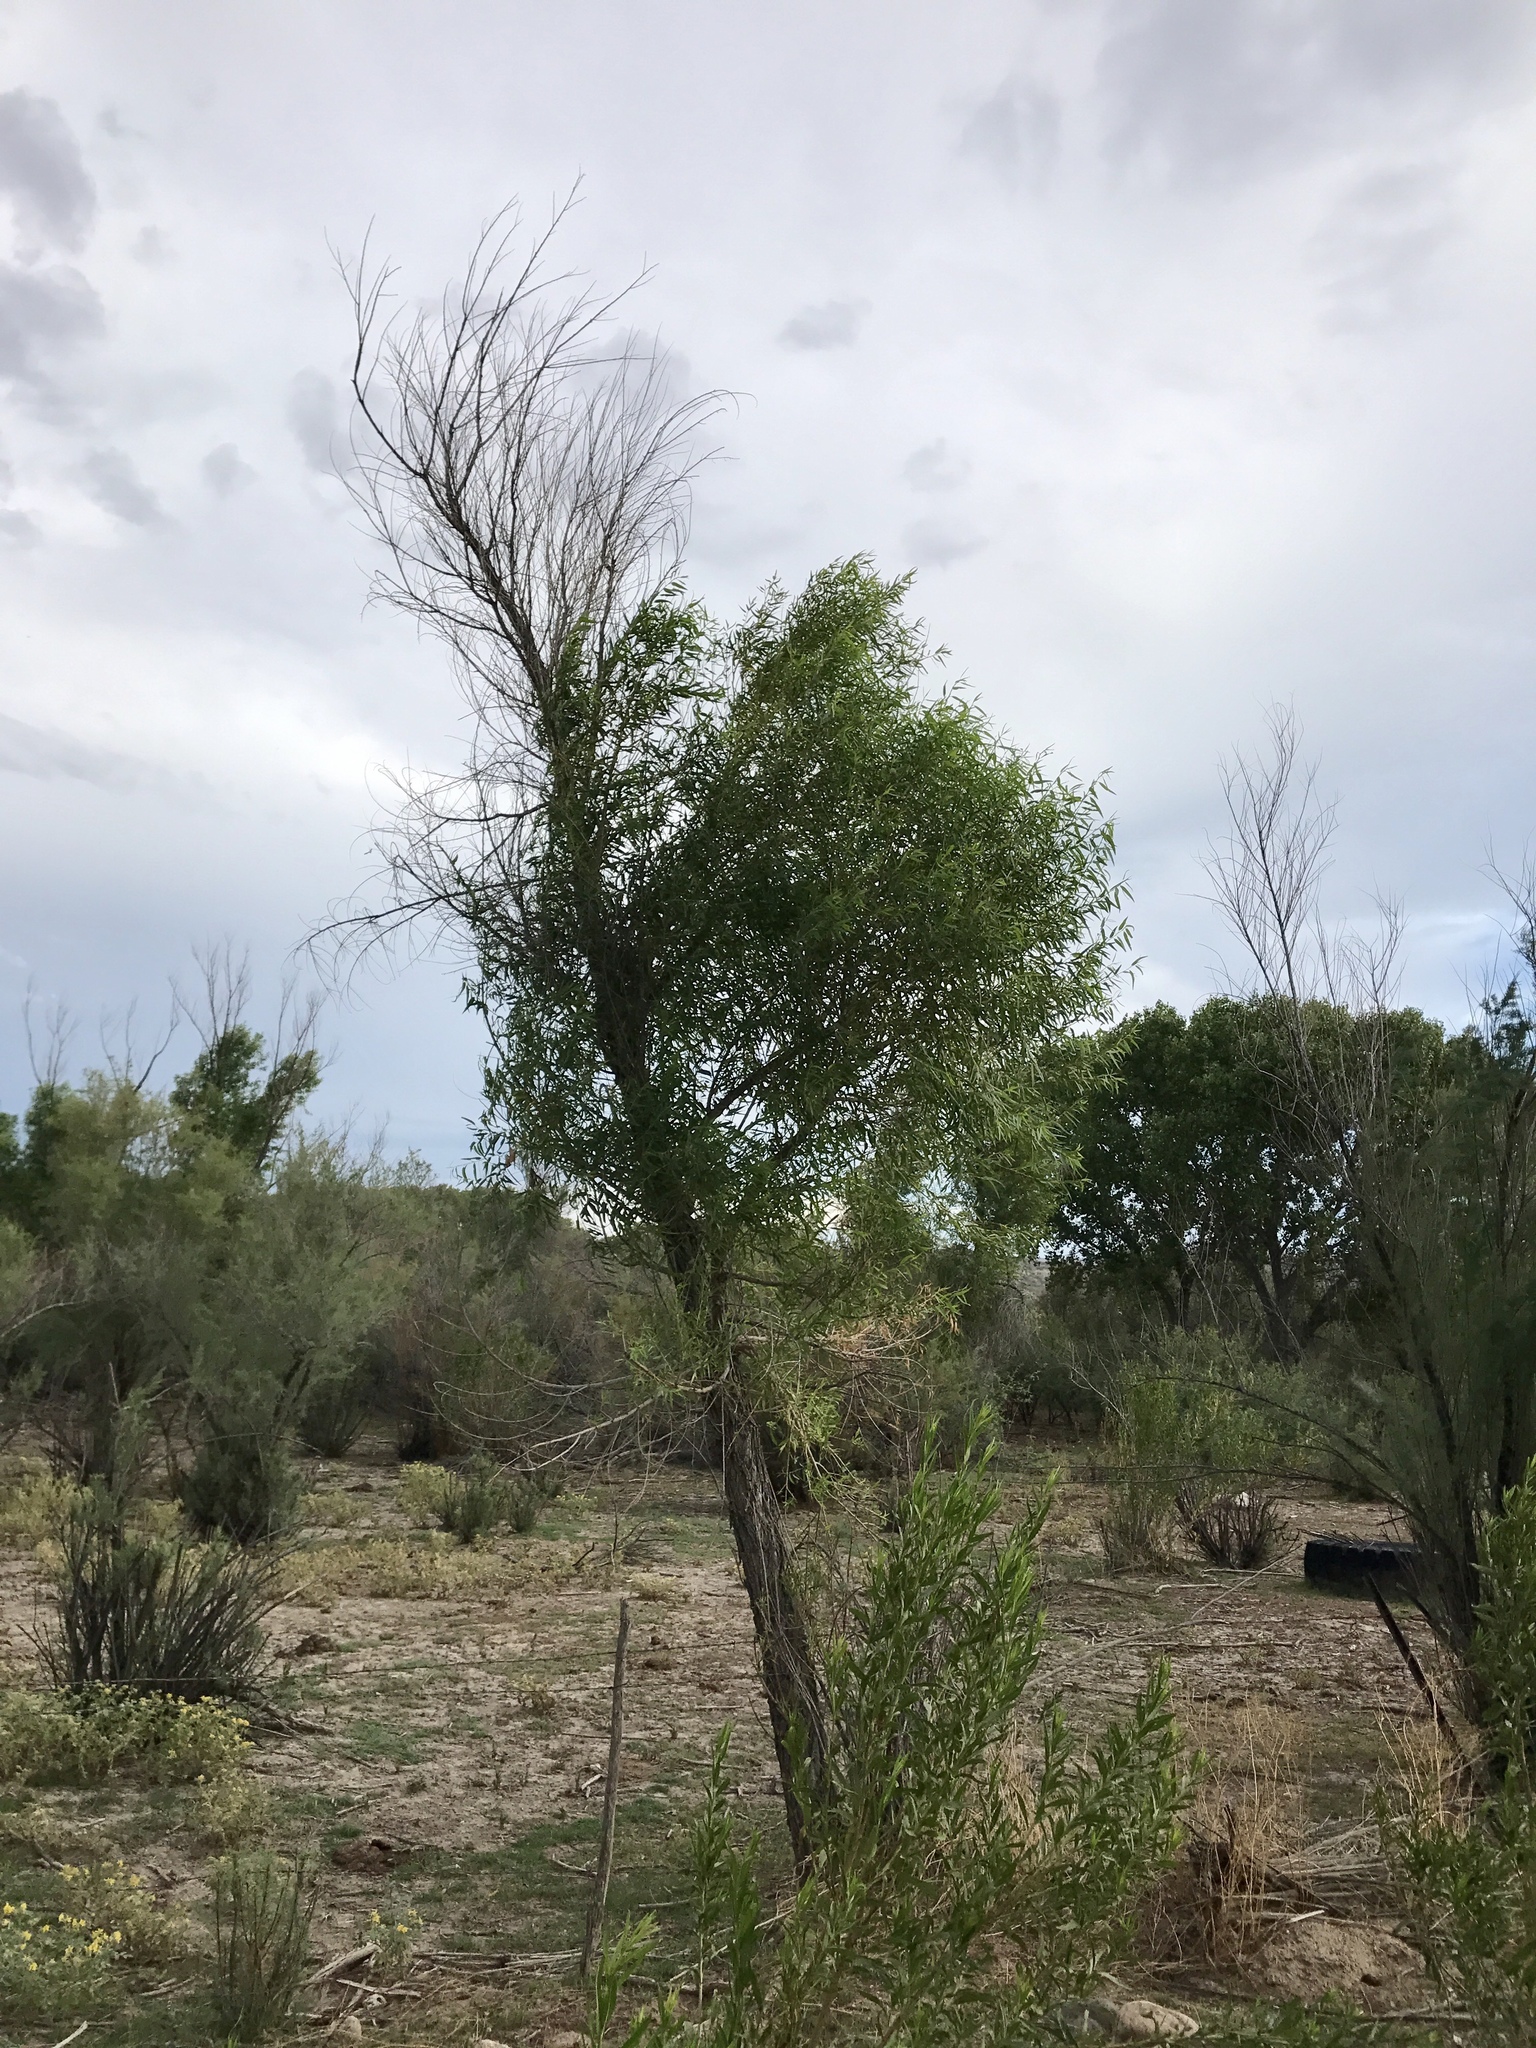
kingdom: Plantae
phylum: Tracheophyta
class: Magnoliopsida
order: Malpighiales
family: Salicaceae
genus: Salix
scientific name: Salix gooddingii
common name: Goodding's willow
